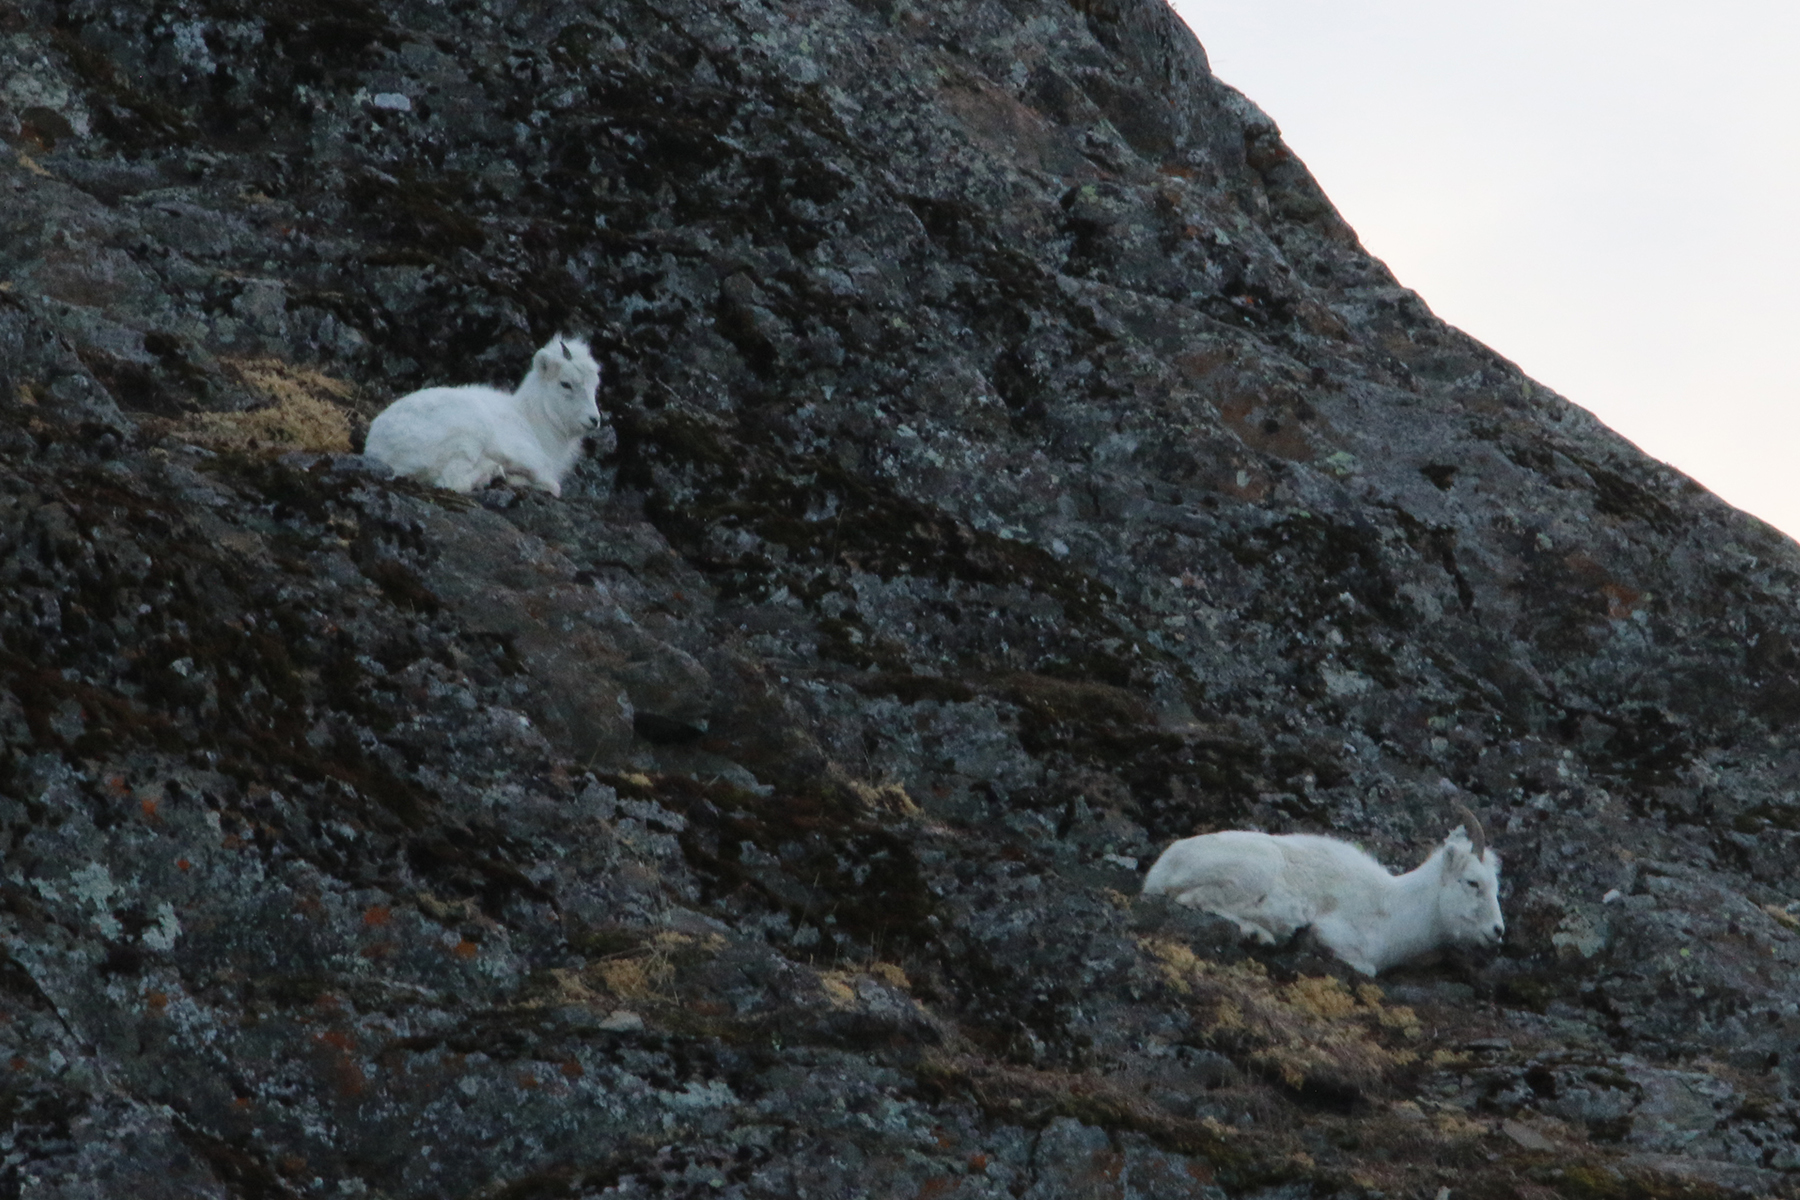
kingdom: Animalia
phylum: Chordata
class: Mammalia
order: Artiodactyla
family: Bovidae
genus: Ovis
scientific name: Ovis dalli
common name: Dall's sheep
